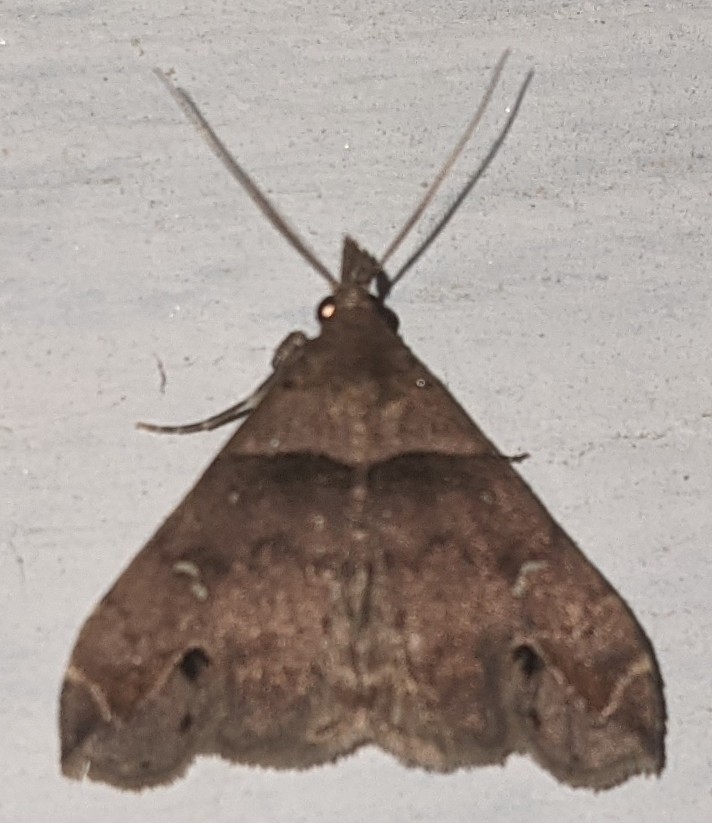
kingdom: Animalia
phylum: Arthropoda
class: Insecta
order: Lepidoptera
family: Erebidae
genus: Lascoria
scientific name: Lascoria ambigualis
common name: Ambiguous moth
